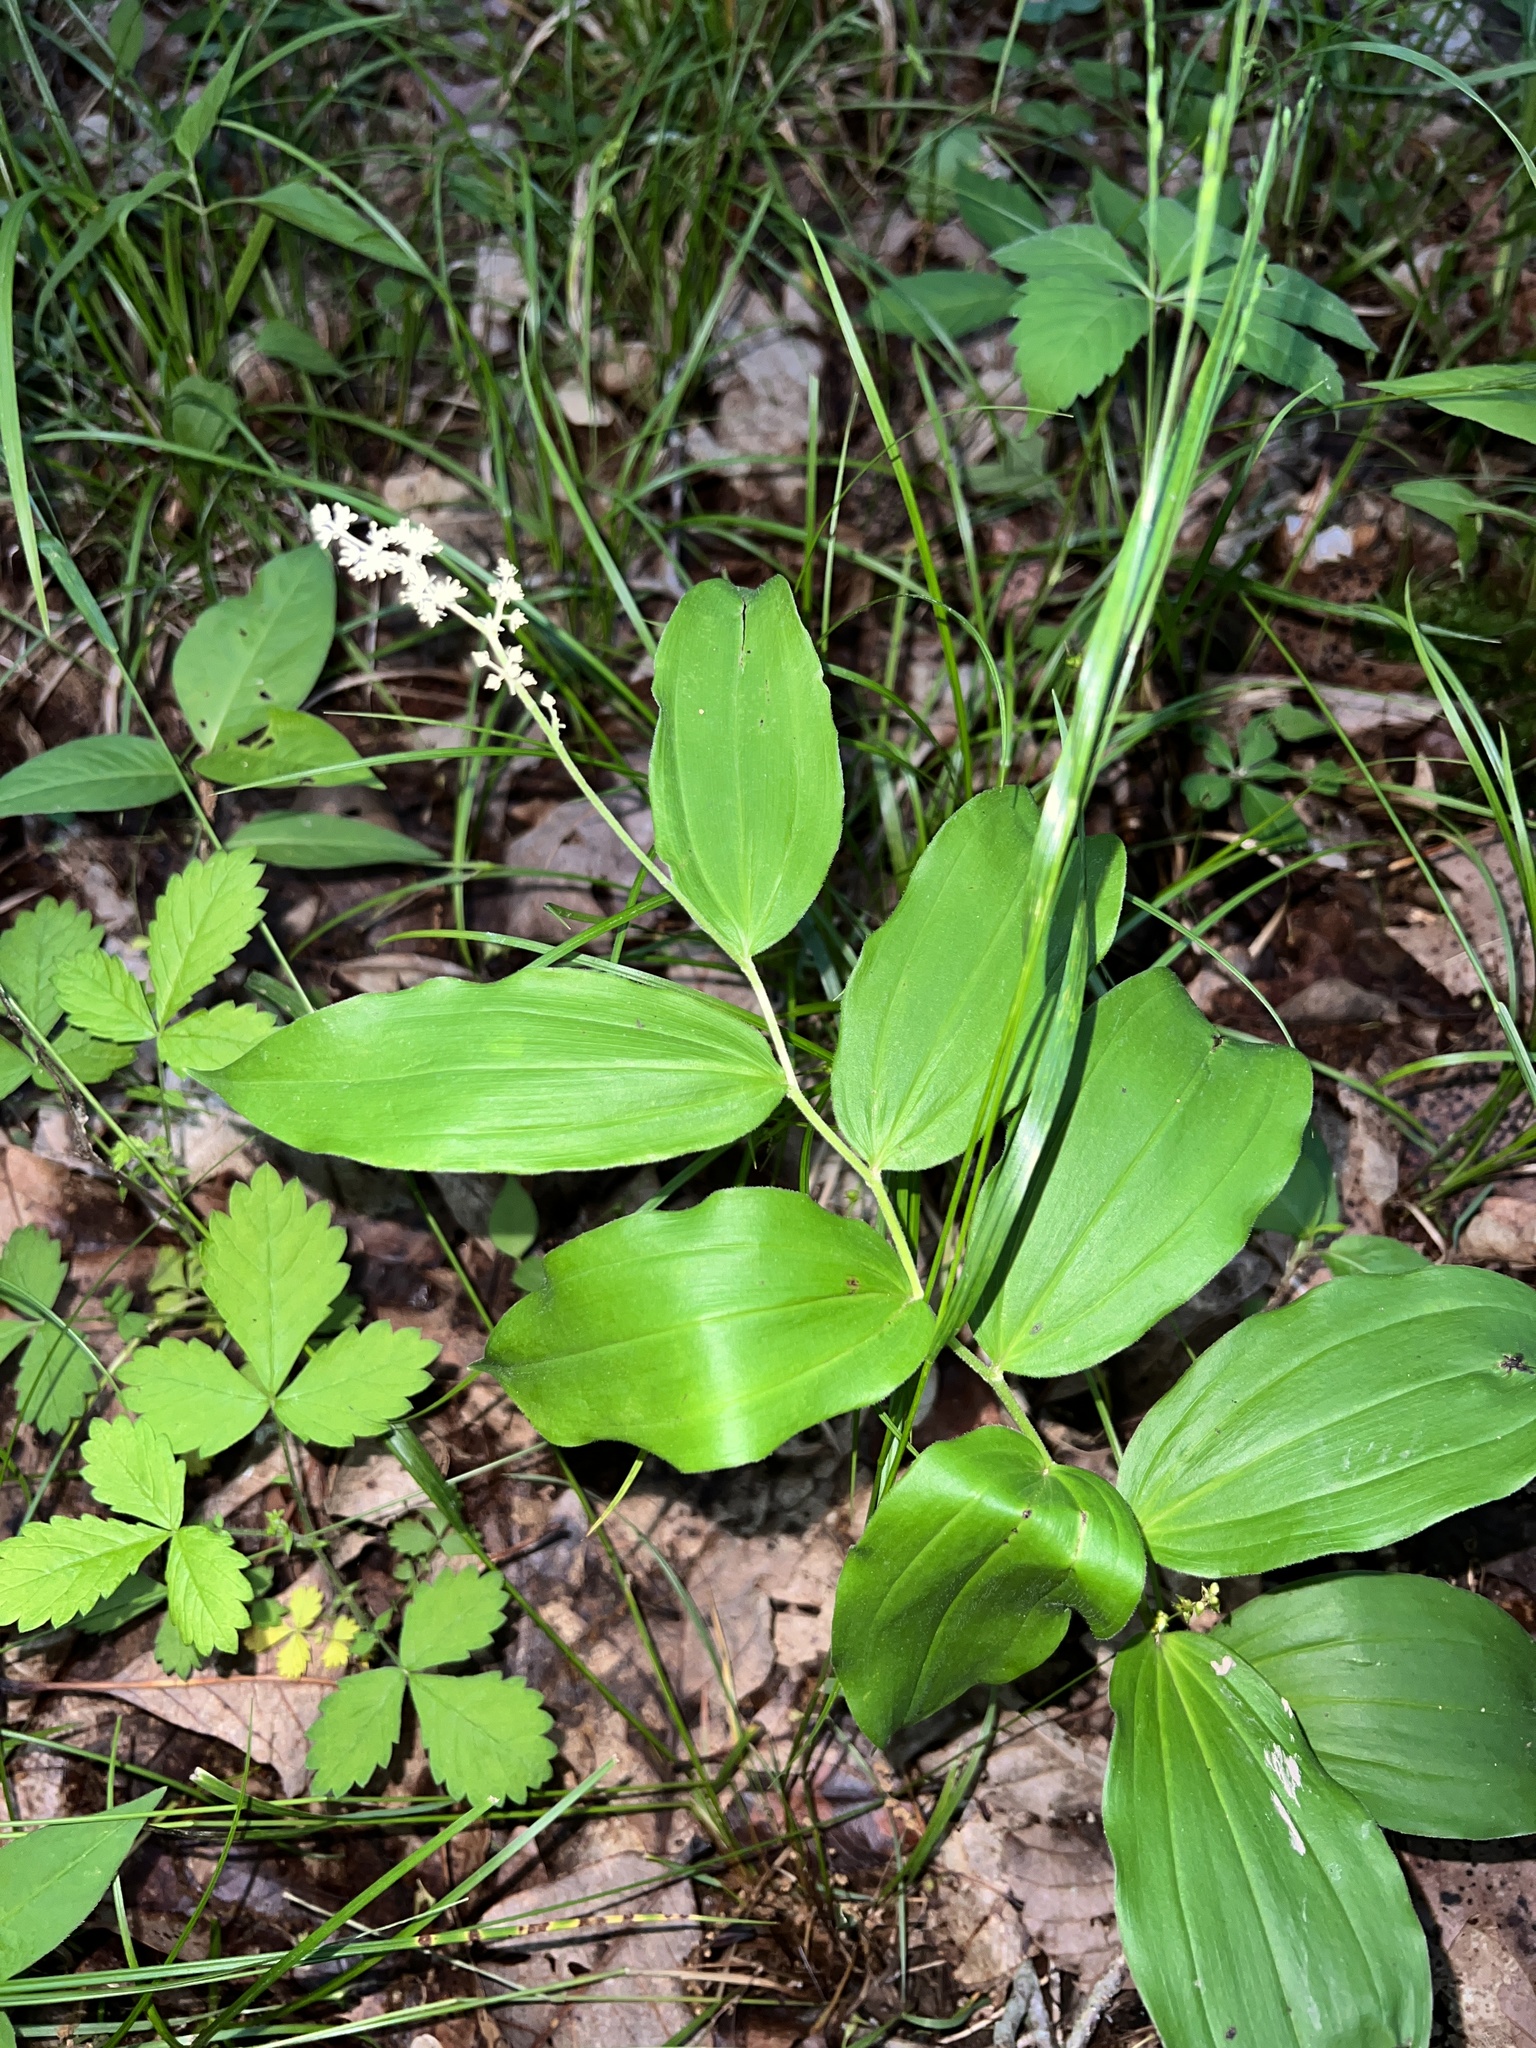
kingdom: Plantae
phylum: Tracheophyta
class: Liliopsida
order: Asparagales
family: Asparagaceae
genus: Maianthemum
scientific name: Maianthemum racemosum
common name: False spikenard
